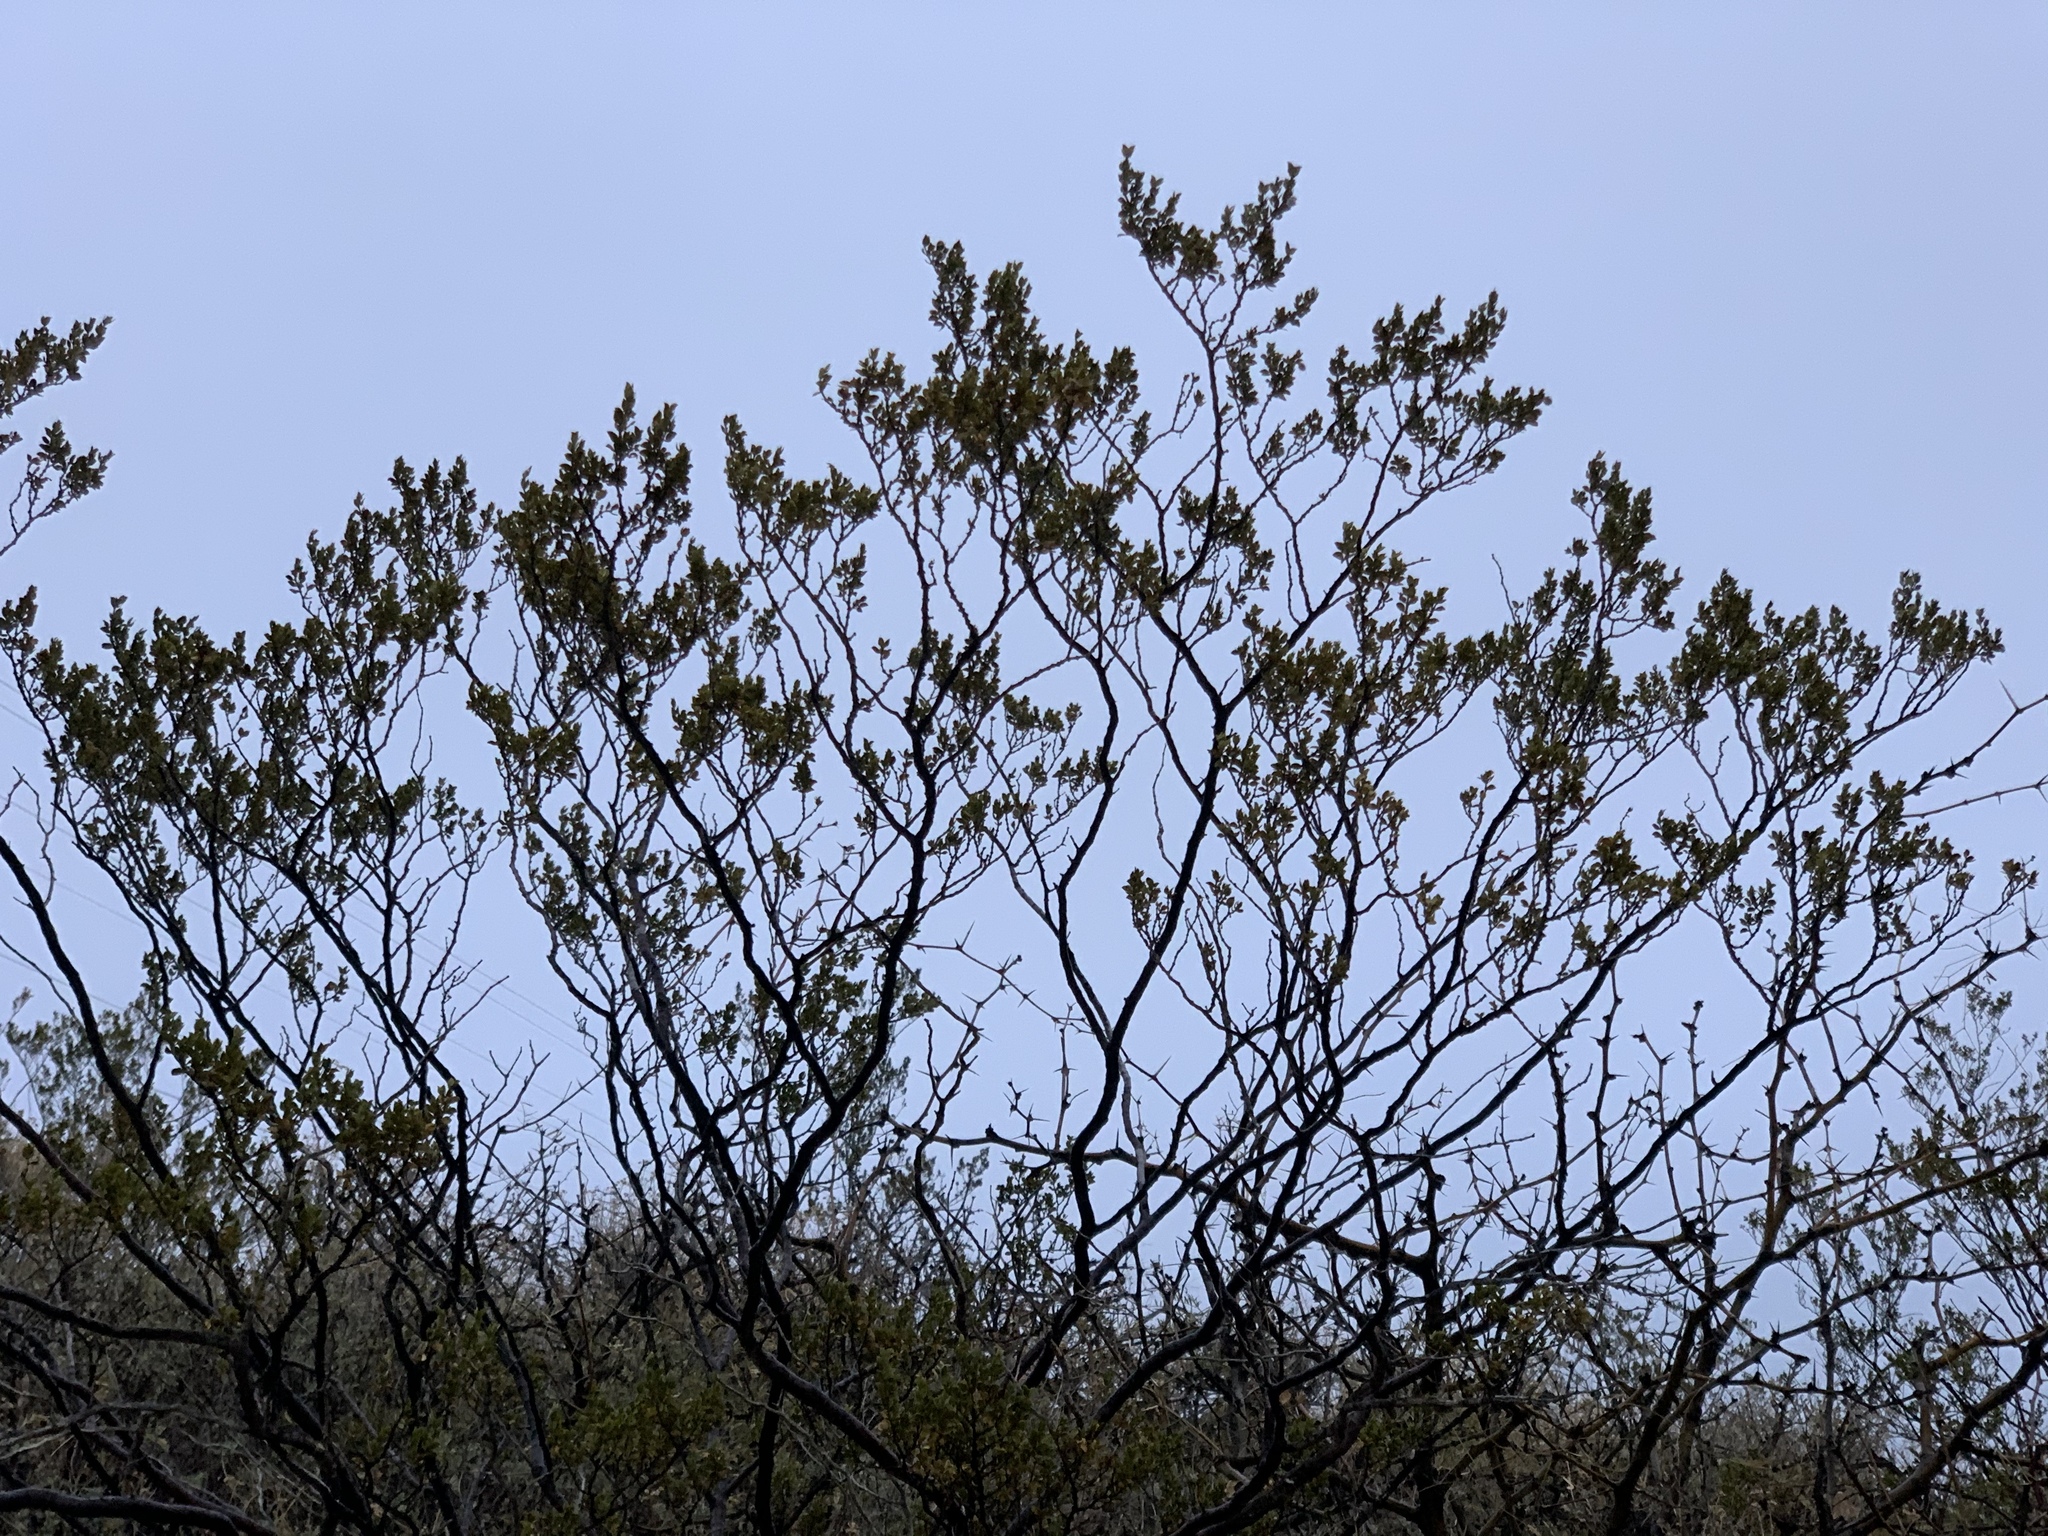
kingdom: Plantae
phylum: Tracheophyta
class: Magnoliopsida
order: Zygophyllales
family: Zygophyllaceae
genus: Larrea
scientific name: Larrea tridentata
